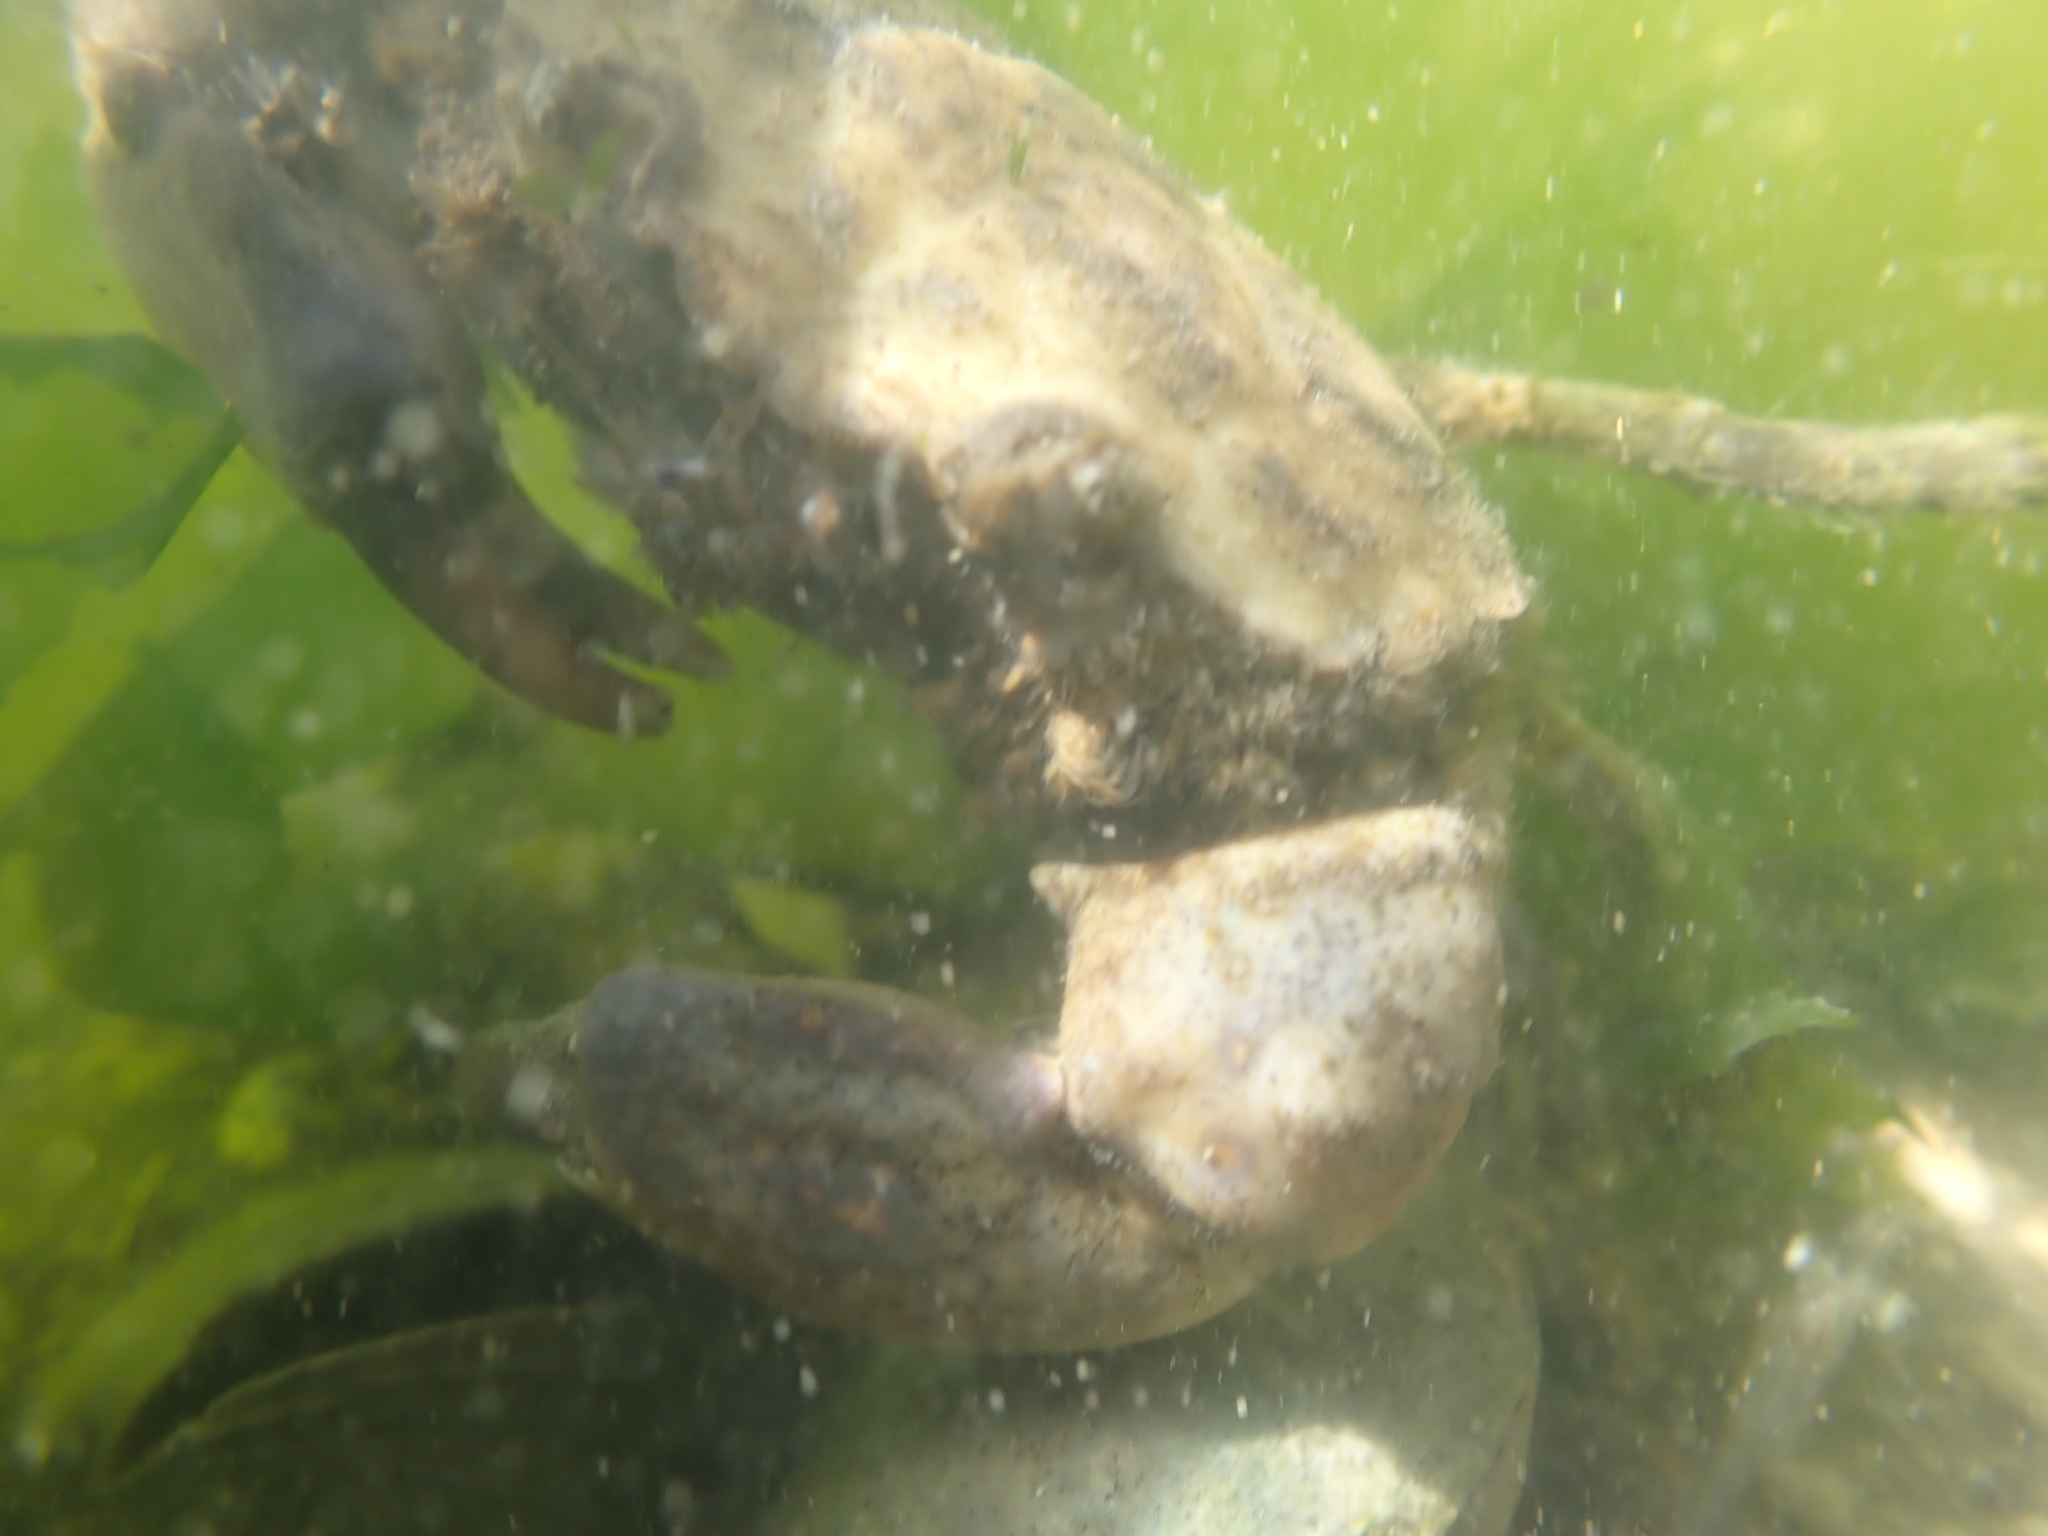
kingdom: Animalia
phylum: Arthropoda
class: Malacostraca
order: Decapoda
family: Pilumnidae
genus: Pilumnopeus
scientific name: Pilumnopeus serratifrons
